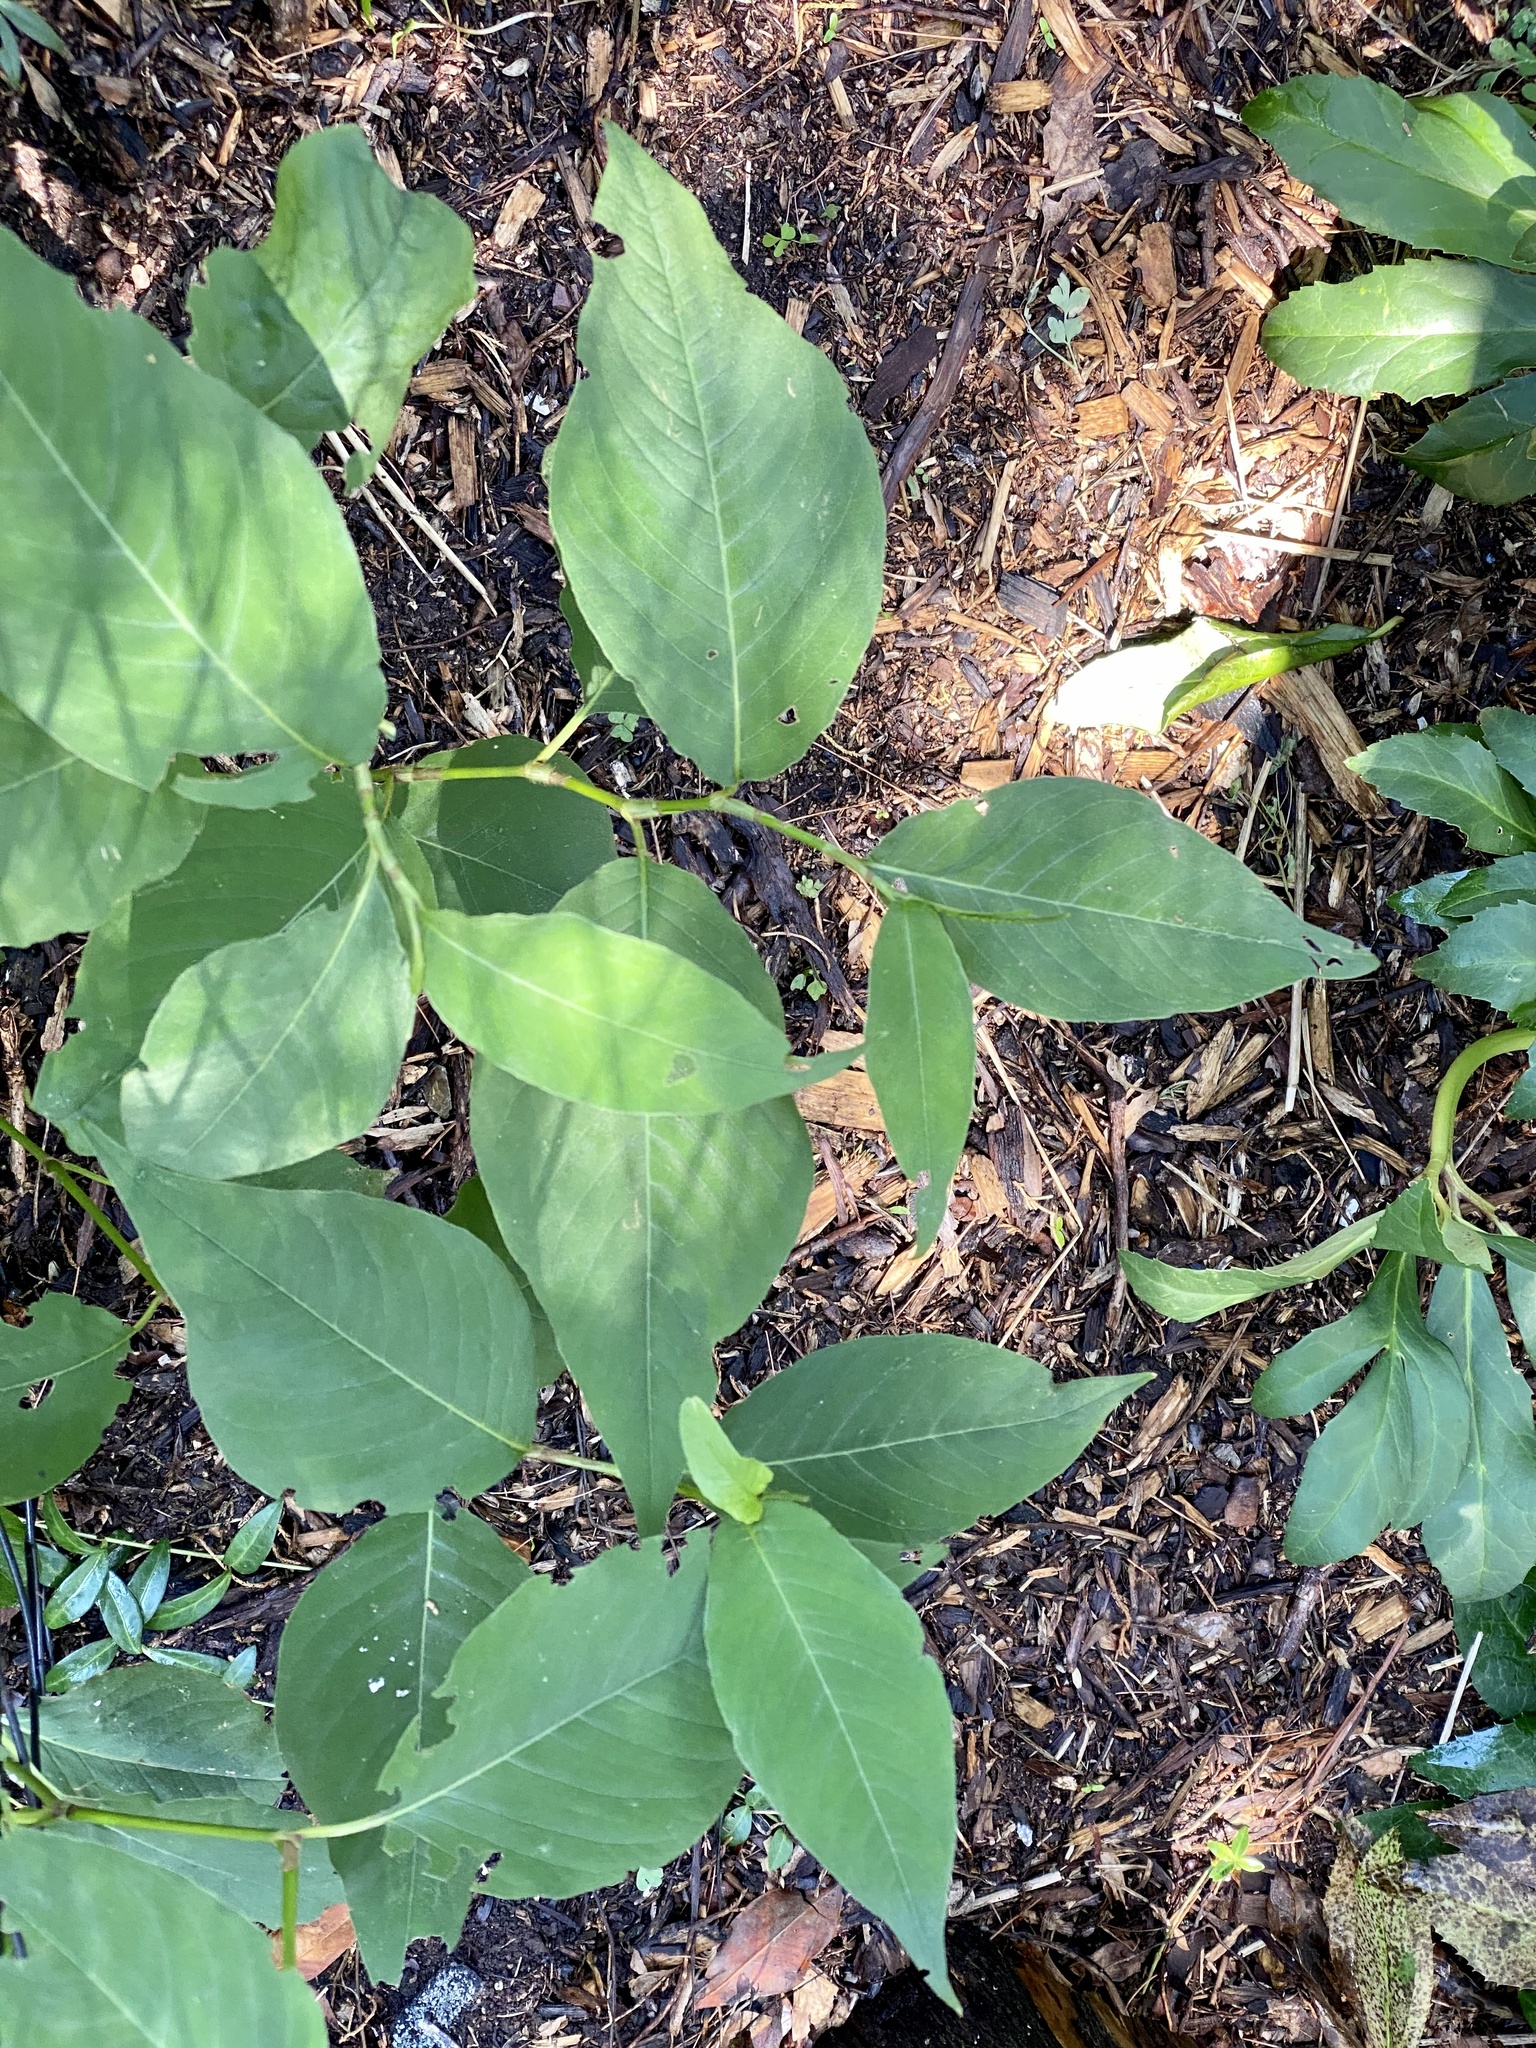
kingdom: Plantae
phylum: Tracheophyta
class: Magnoliopsida
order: Caryophyllales
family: Polygonaceae
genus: Persicaria
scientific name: Persicaria virginiana
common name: Jumpseed
